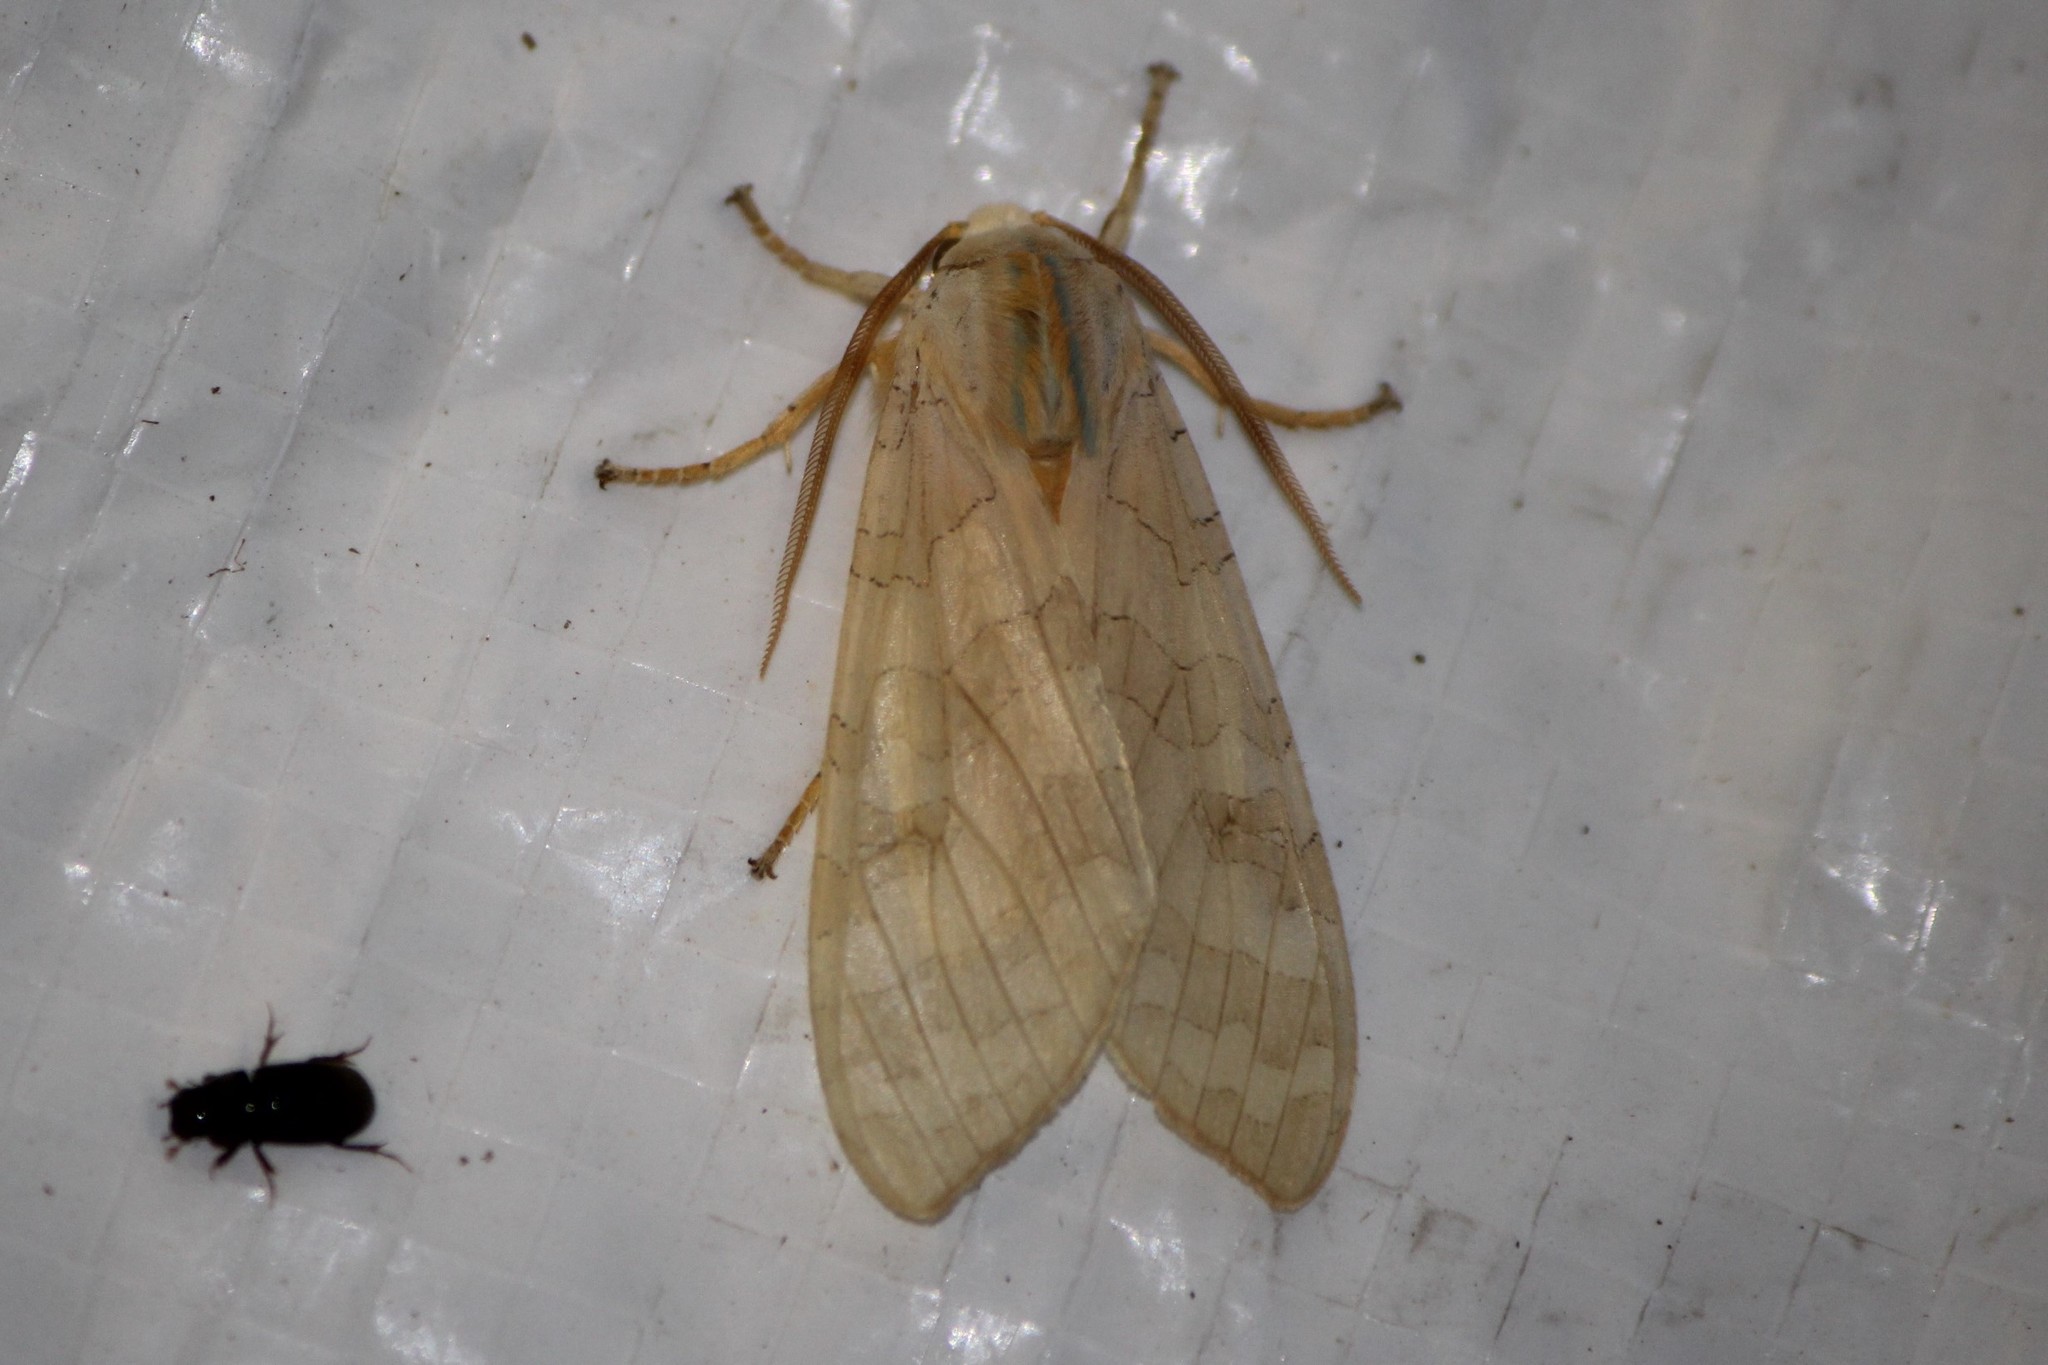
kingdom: Animalia
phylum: Arthropoda
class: Insecta
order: Lepidoptera
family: Erebidae
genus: Halysidota
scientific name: Halysidota tessellaris
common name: Banded tussock moth
